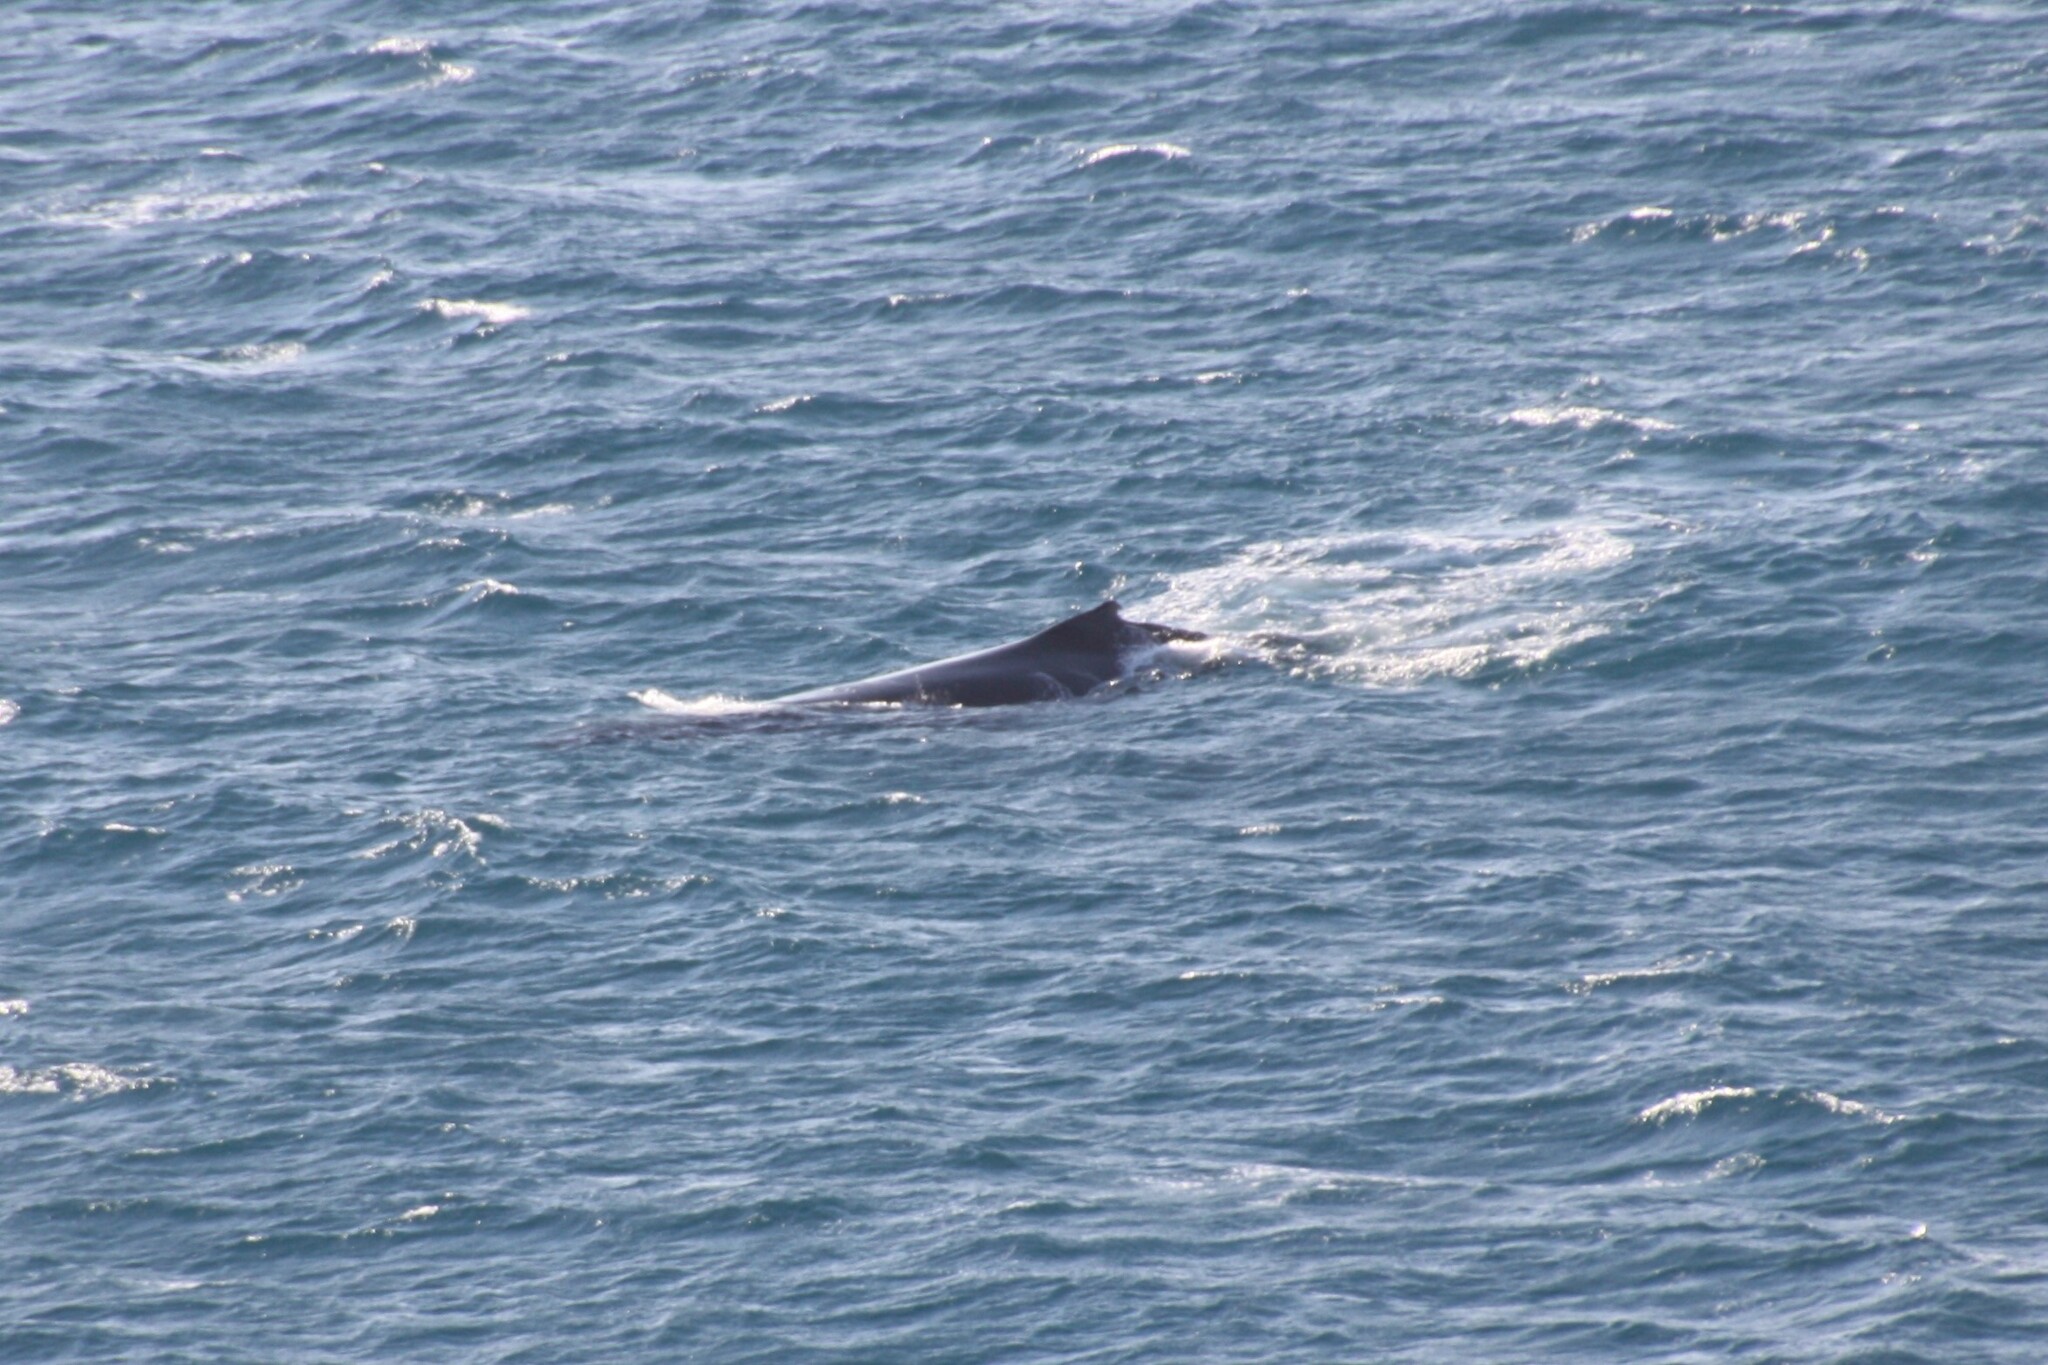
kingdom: Animalia
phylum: Chordata
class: Mammalia
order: Cetacea
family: Balaenopteridae
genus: Megaptera
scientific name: Megaptera novaeangliae
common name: Humpback whale
